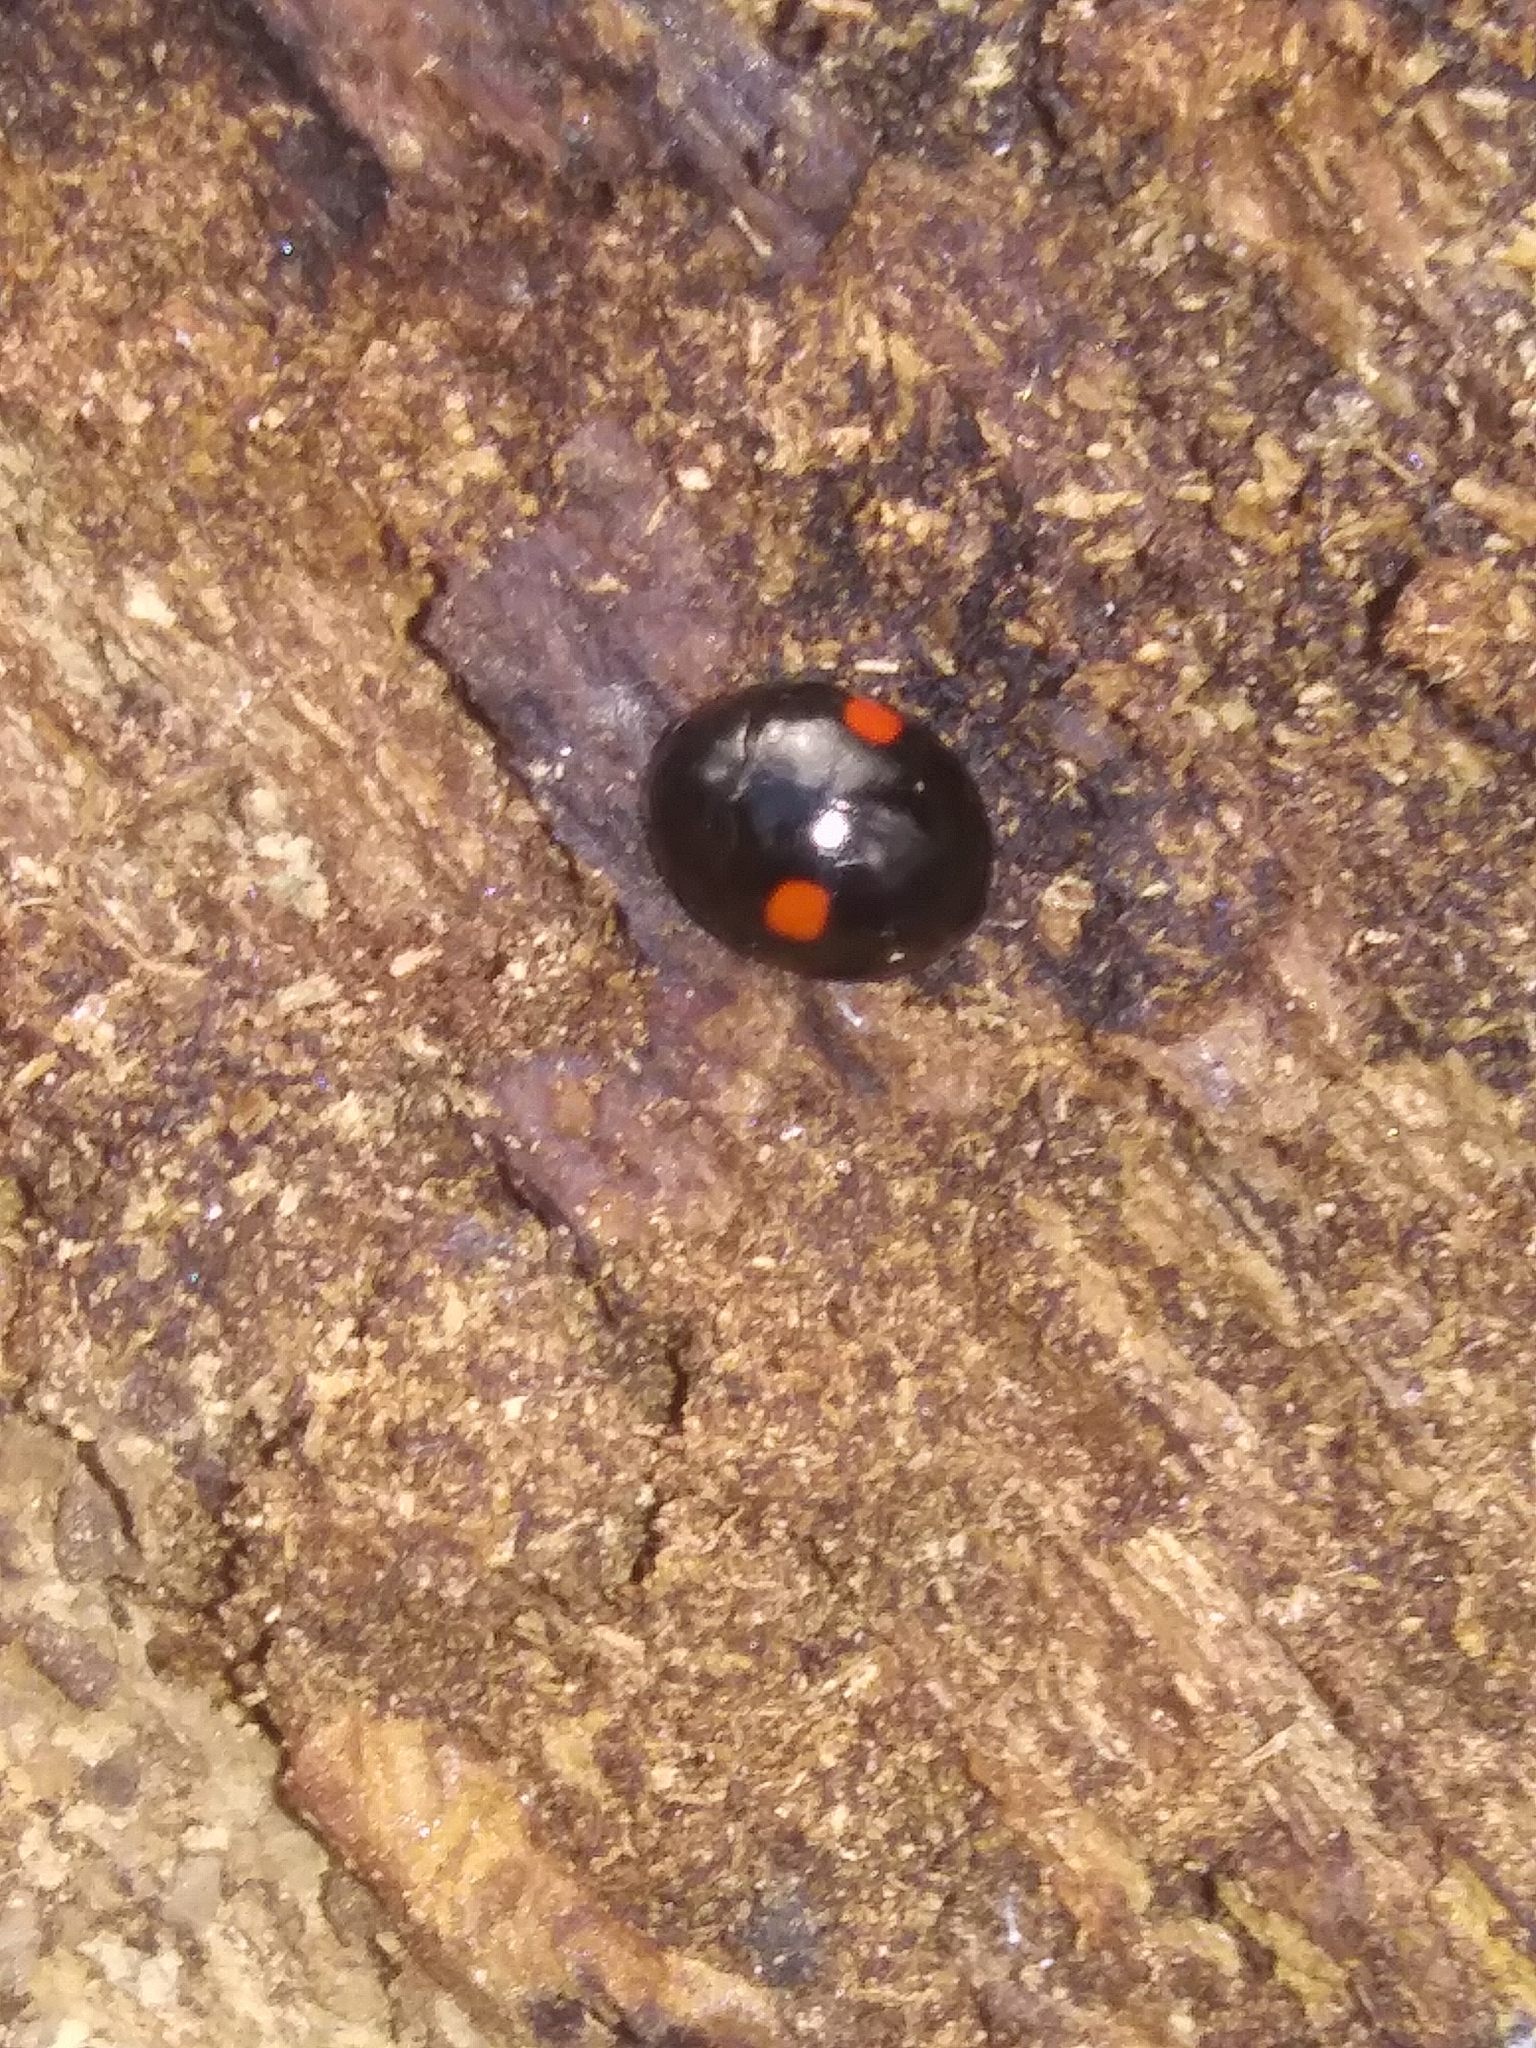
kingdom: Animalia
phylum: Arthropoda
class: Insecta
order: Coleoptera
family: Coccinellidae
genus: Hyperaspis
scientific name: Hyperaspis
